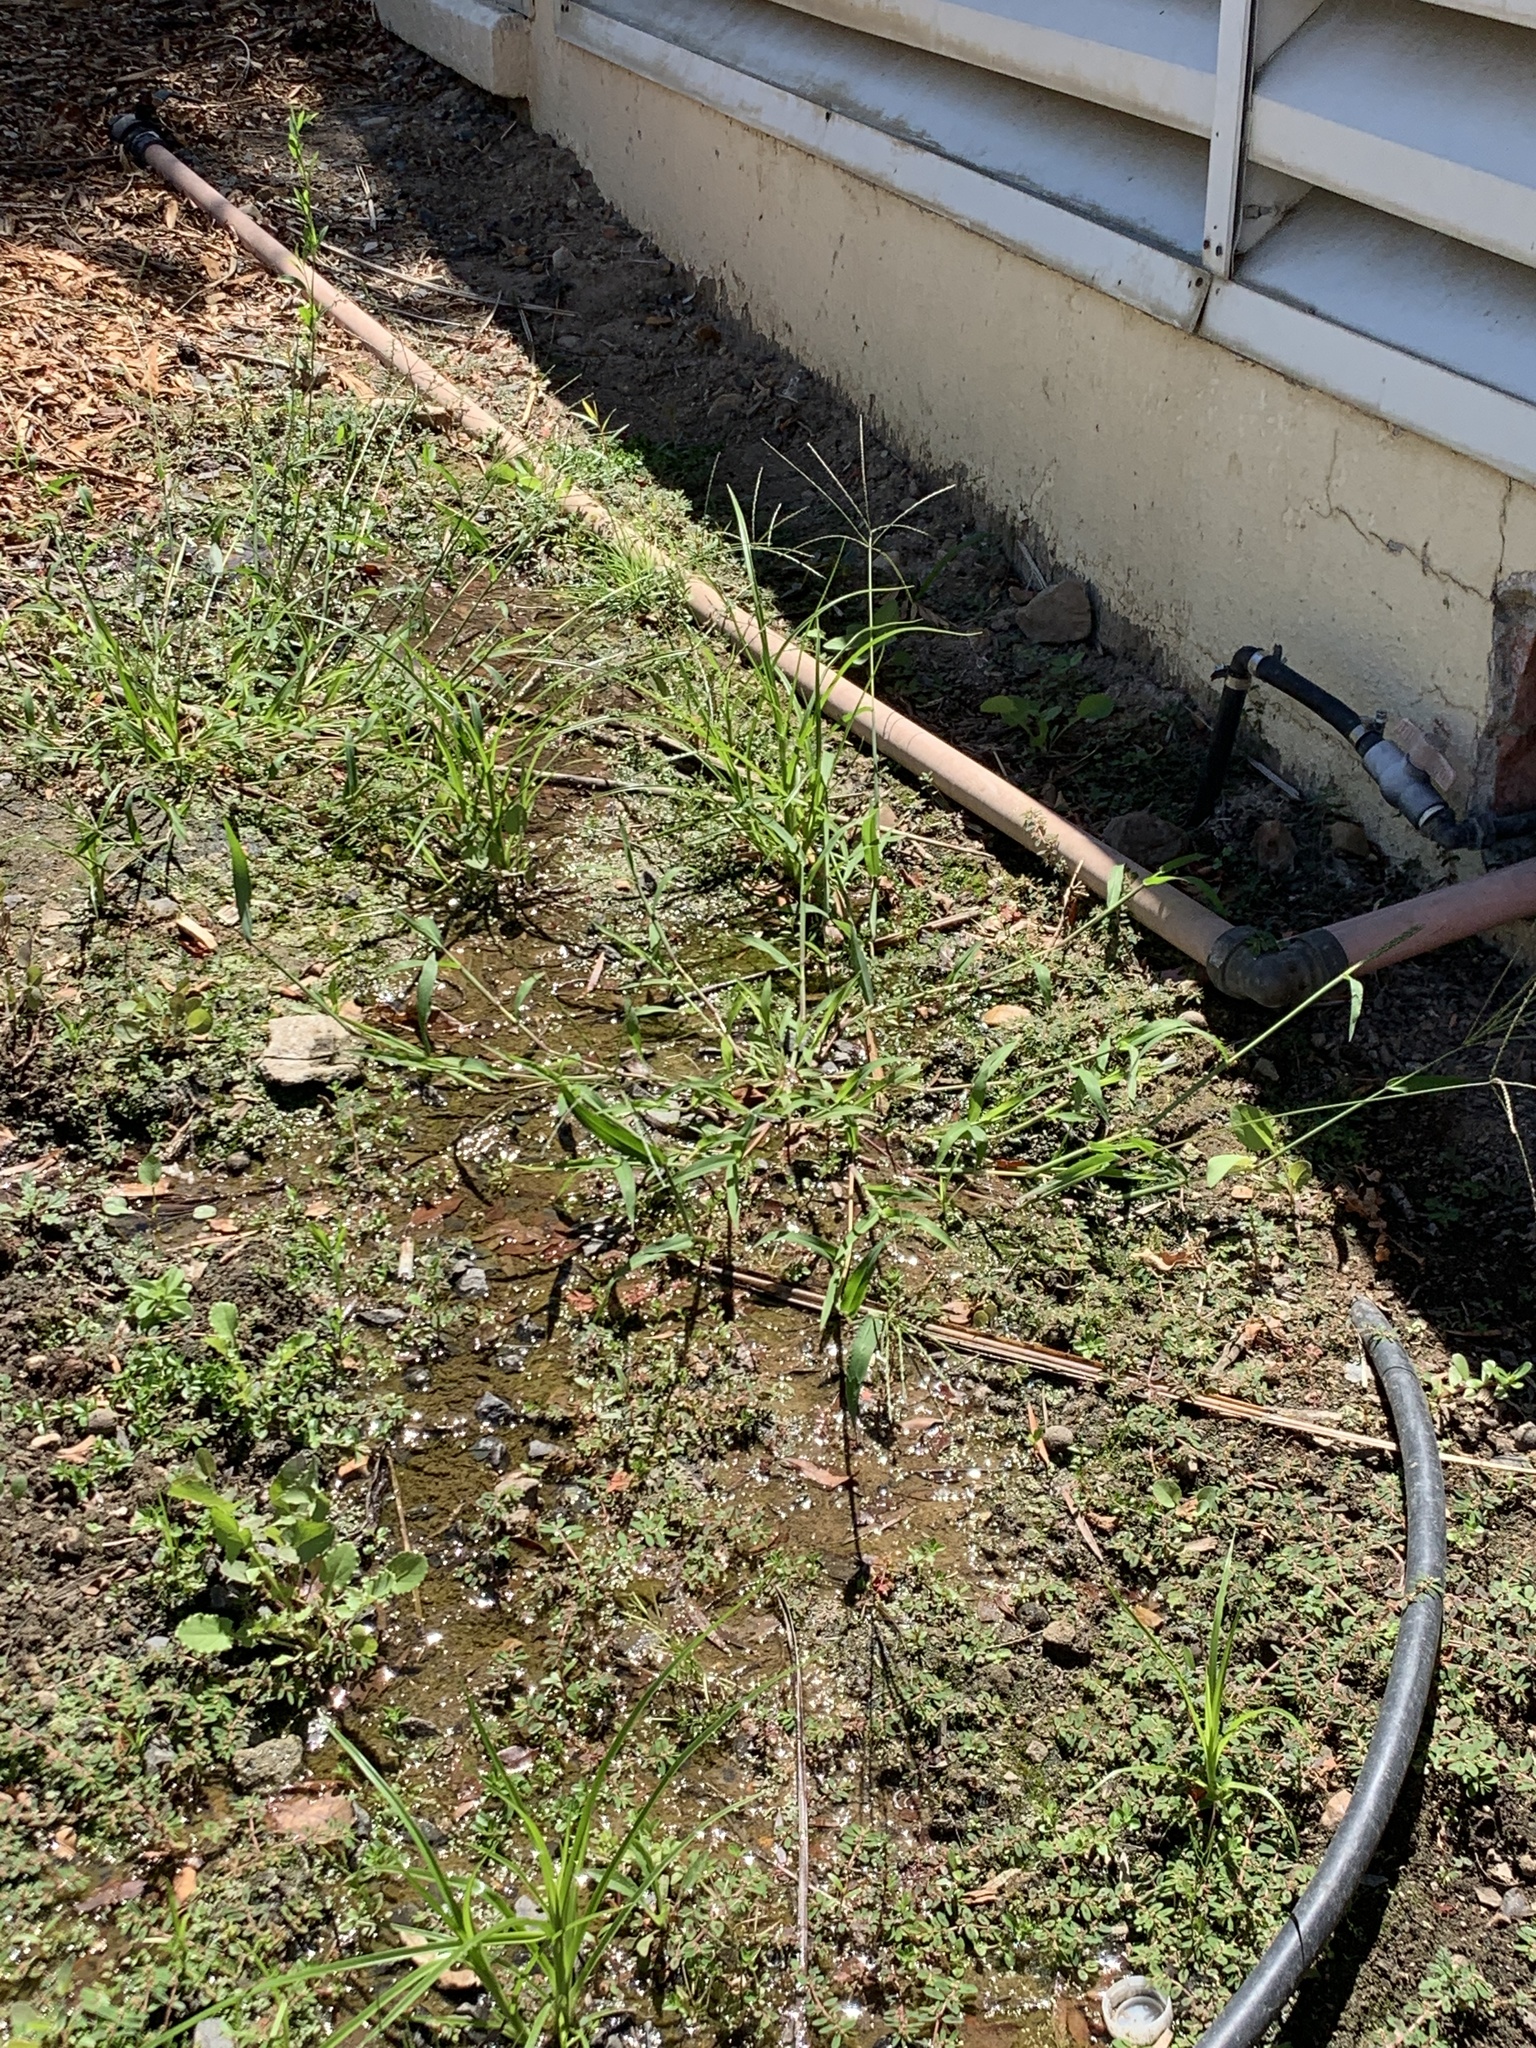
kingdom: Plantae
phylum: Tracheophyta
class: Liliopsida
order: Poales
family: Poaceae
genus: Digitaria
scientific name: Digitaria sanguinalis
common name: Hairy crabgrass
